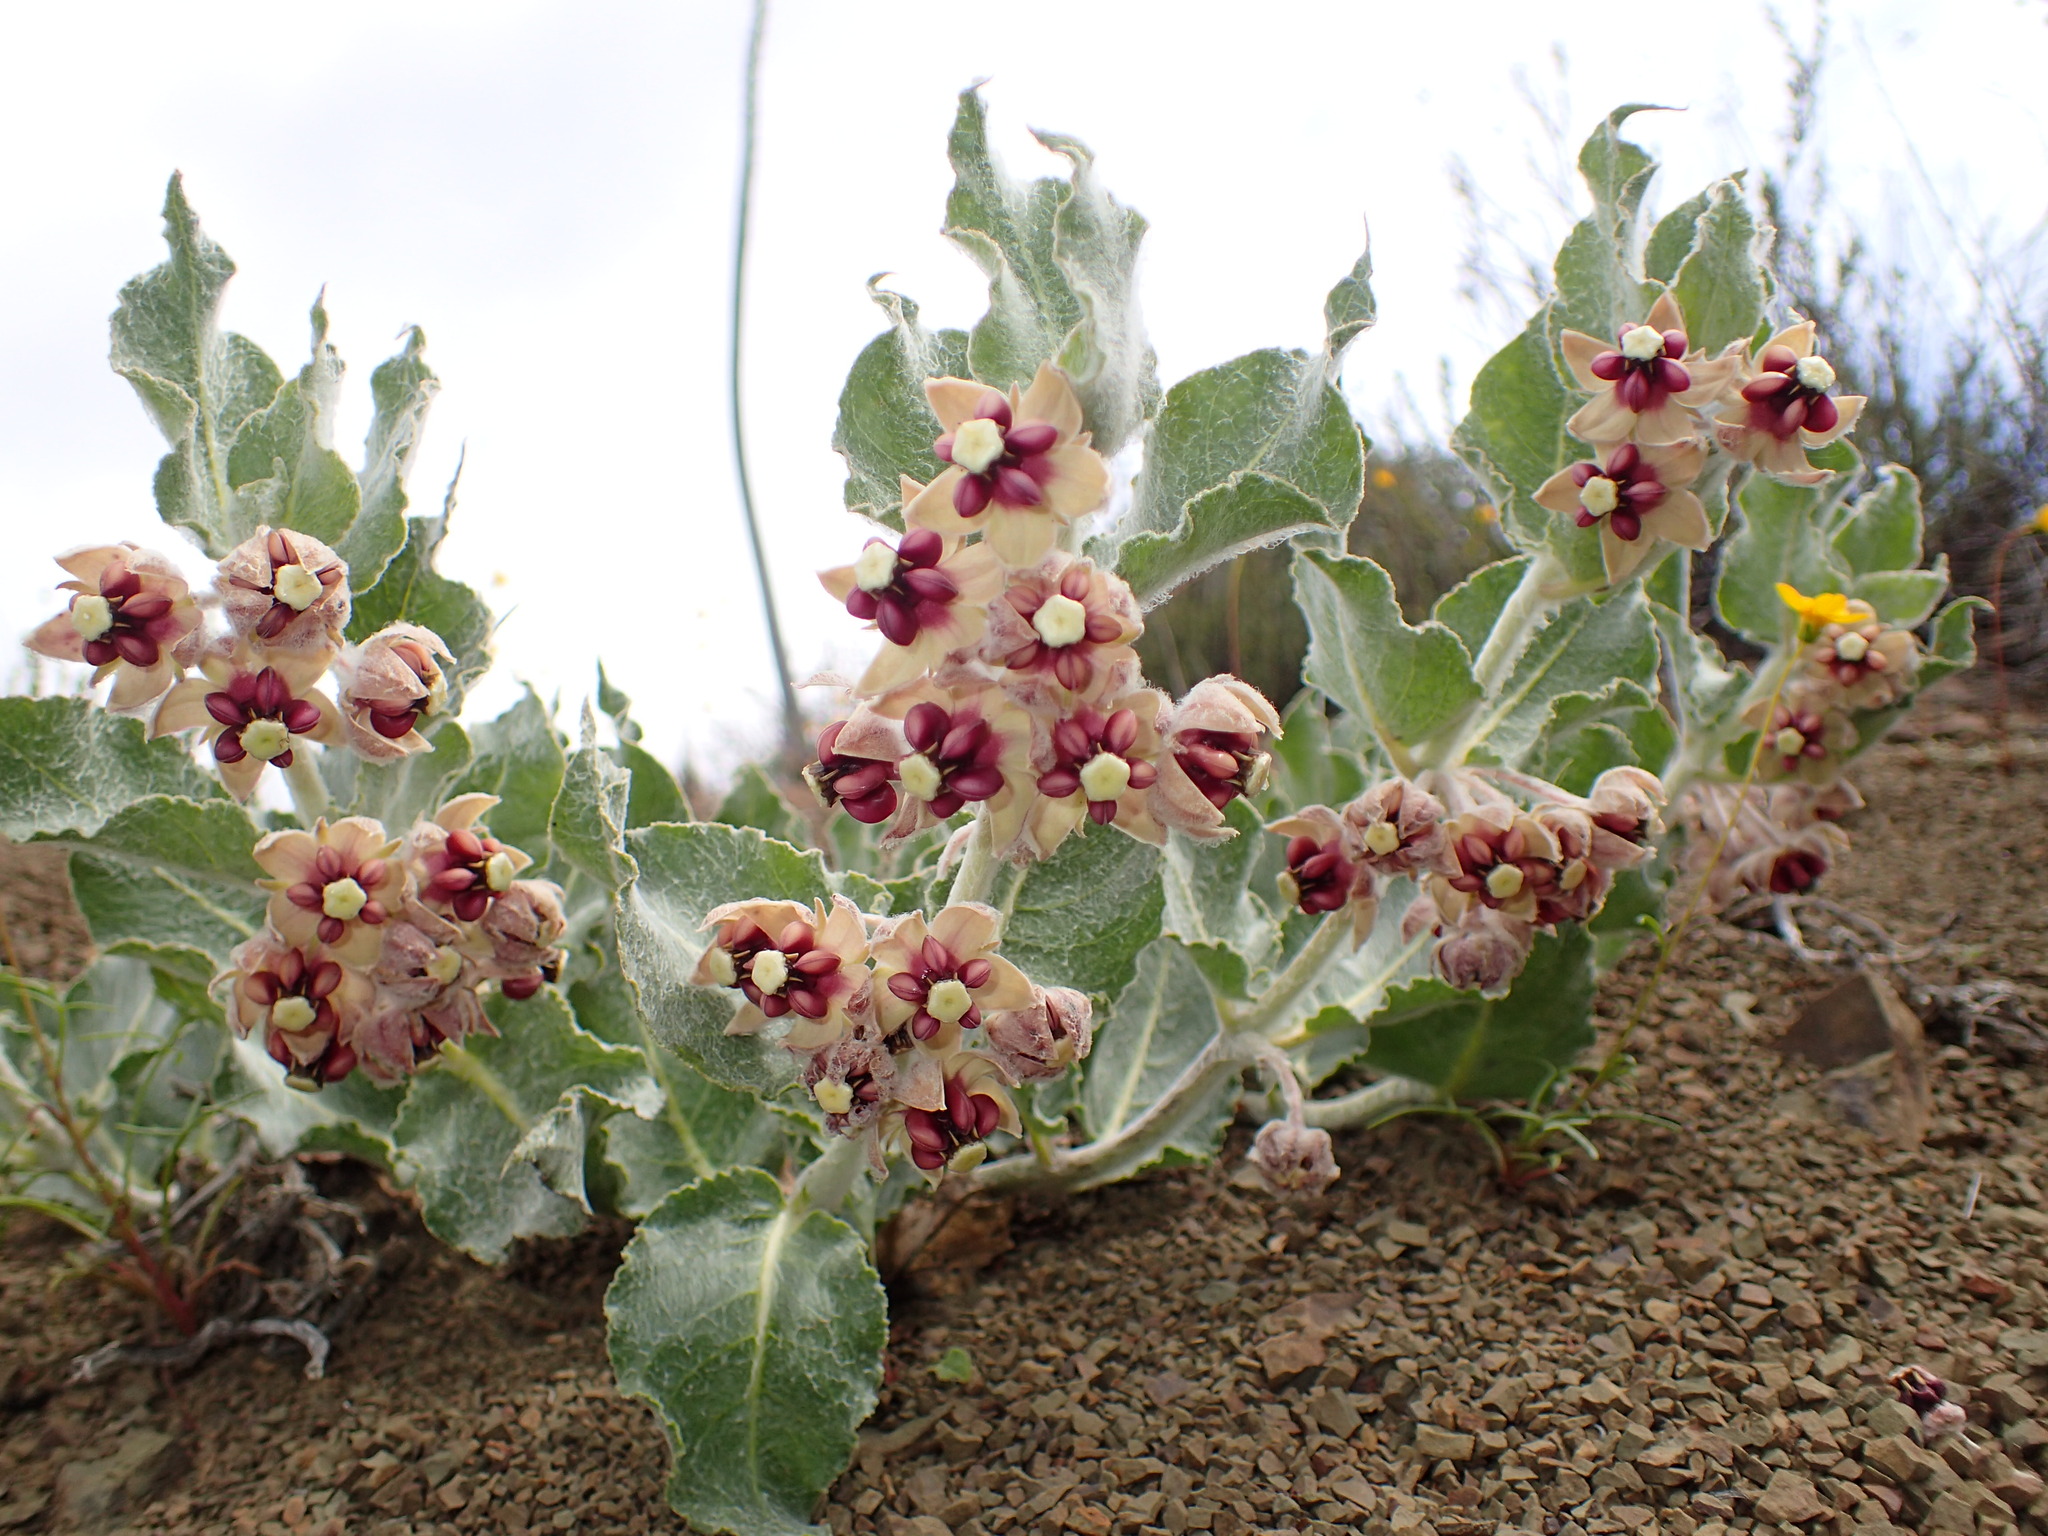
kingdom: Plantae
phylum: Tracheophyta
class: Magnoliopsida
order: Gentianales
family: Apocynaceae
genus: Asclepias
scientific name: Asclepias californica
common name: California milkweed
